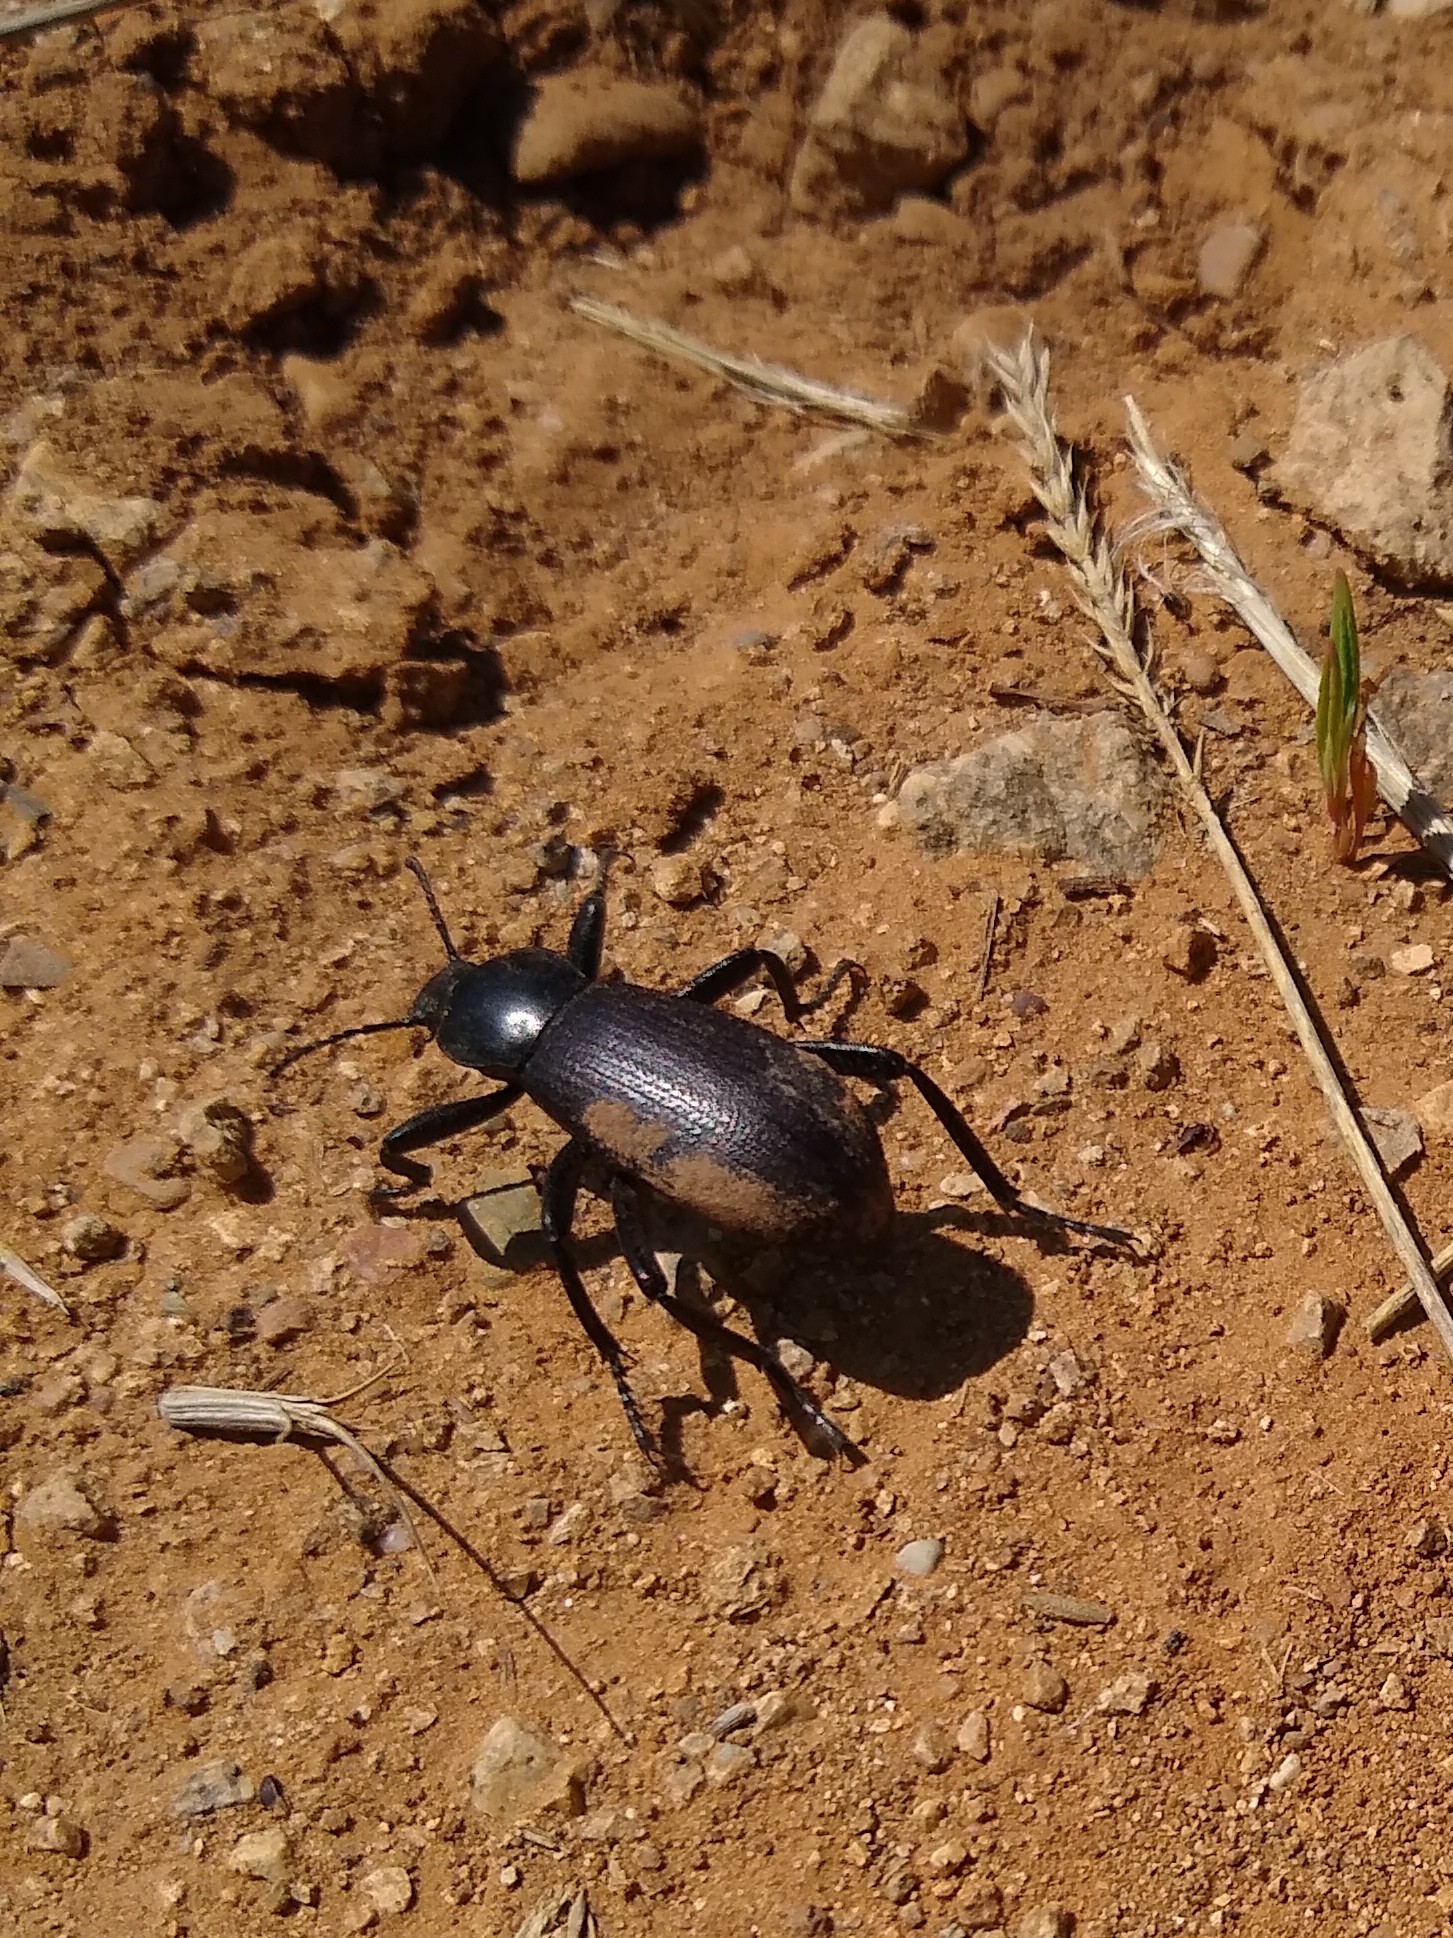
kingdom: Animalia
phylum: Arthropoda
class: Insecta
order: Coleoptera
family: Tenebrionidae
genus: Eleodes
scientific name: Eleodes obscura
